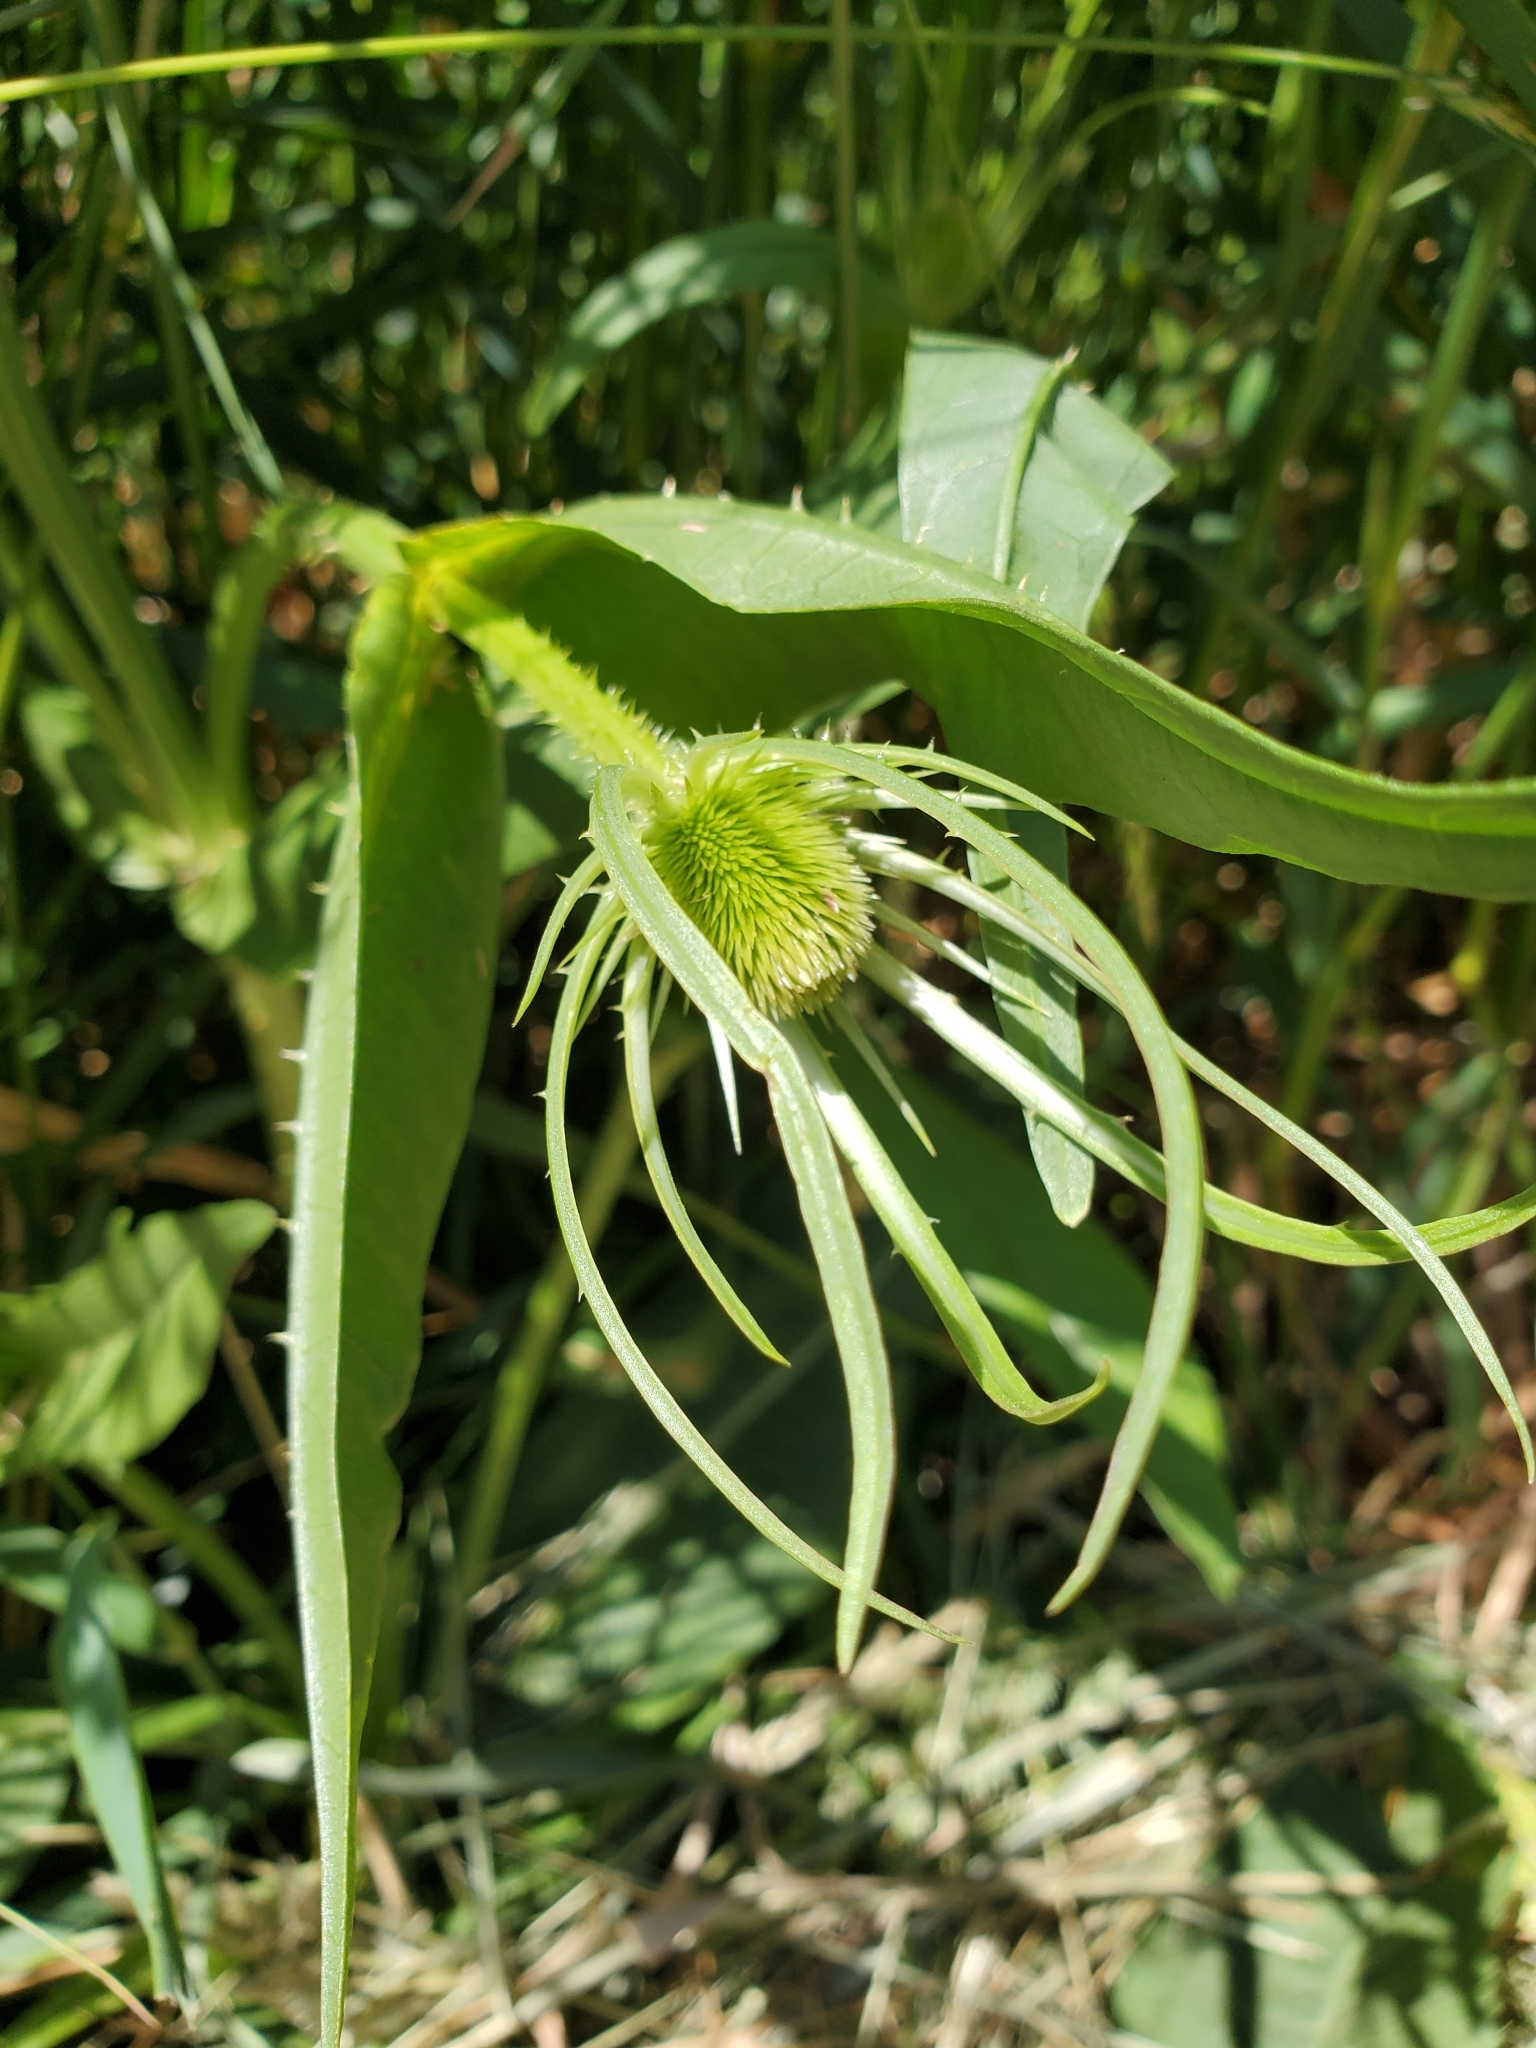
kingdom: Plantae
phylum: Tracheophyta
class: Magnoliopsida
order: Dipsacales
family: Caprifoliaceae
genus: Dipsacus
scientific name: Dipsacus fullonum
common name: Teasel
